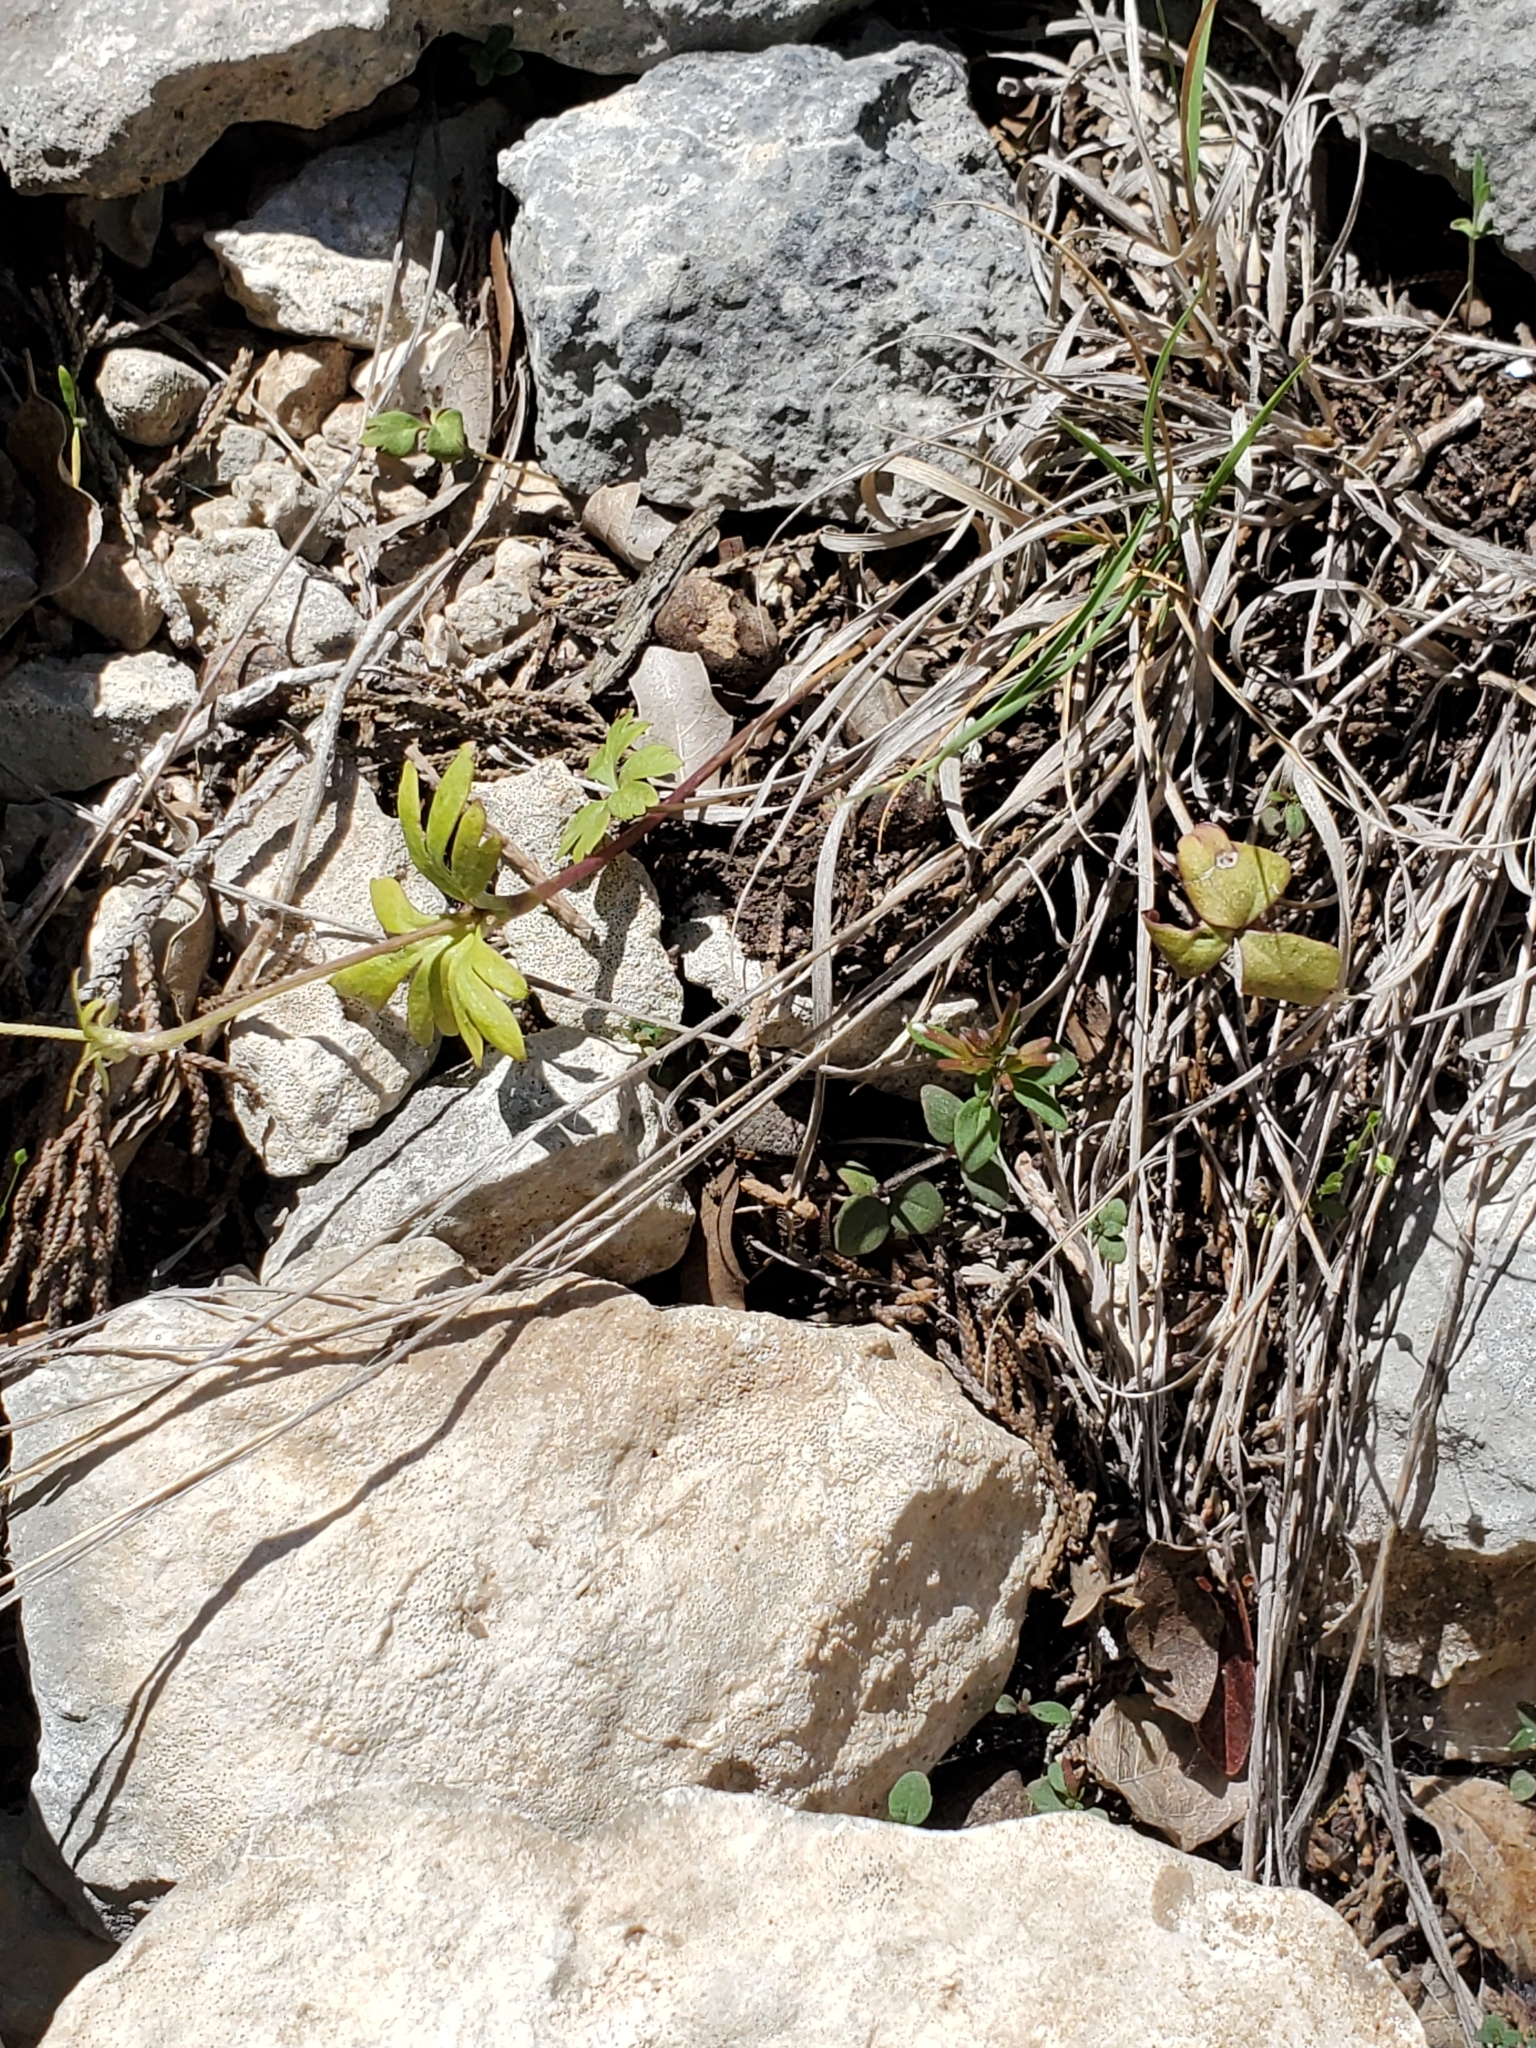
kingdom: Plantae
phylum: Tracheophyta
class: Magnoliopsida
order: Ranunculales
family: Ranunculaceae
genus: Anemone
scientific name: Anemone edwardsiana
